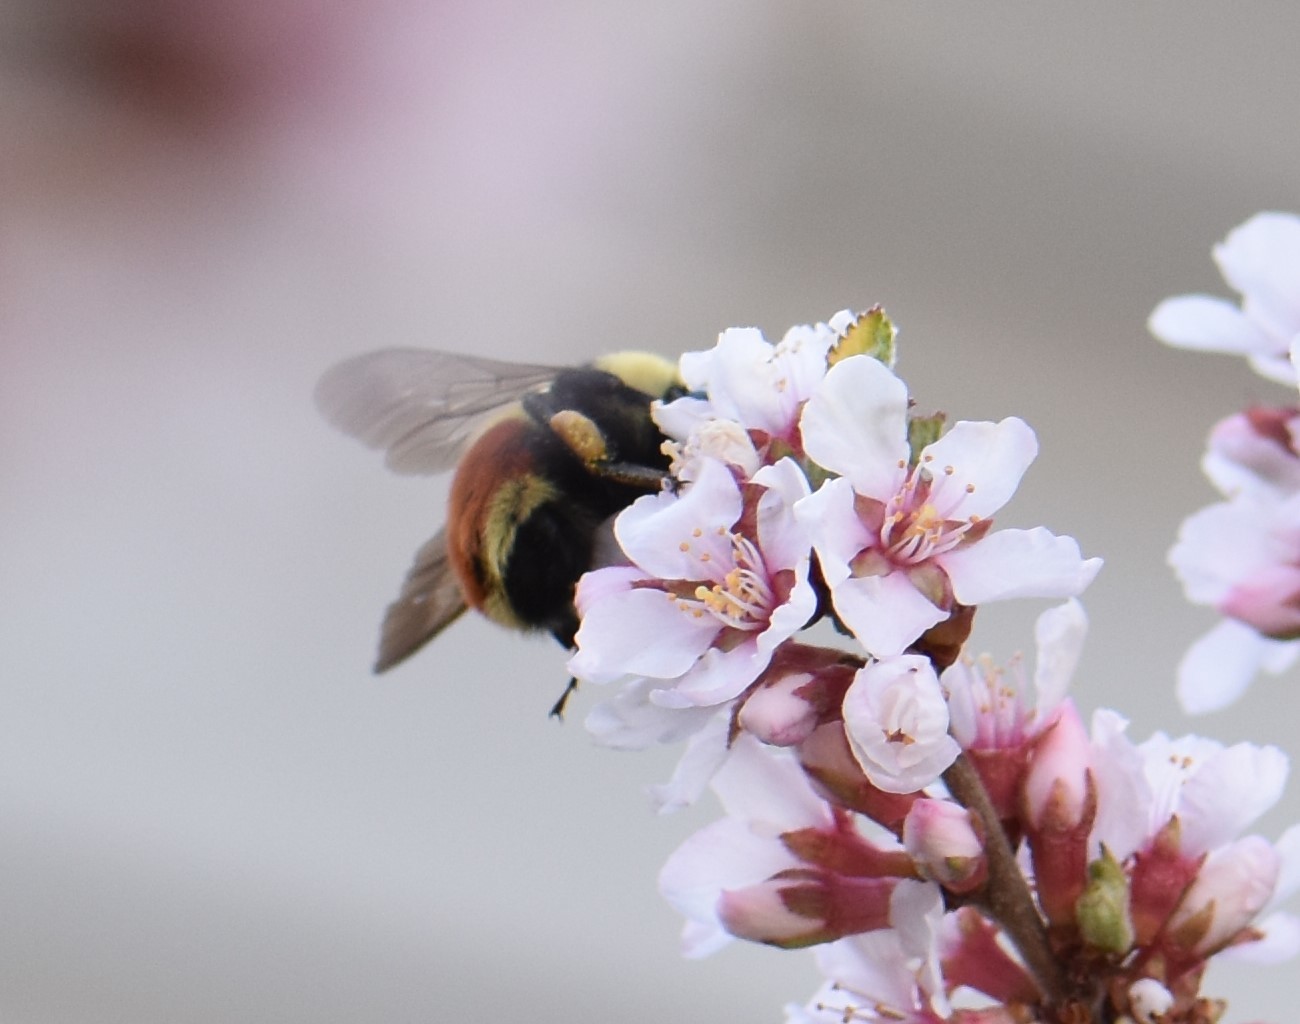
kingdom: Animalia
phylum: Arthropoda
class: Insecta
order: Hymenoptera
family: Apidae
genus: Bombus
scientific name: Bombus huntii
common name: Hunt bumble bee
